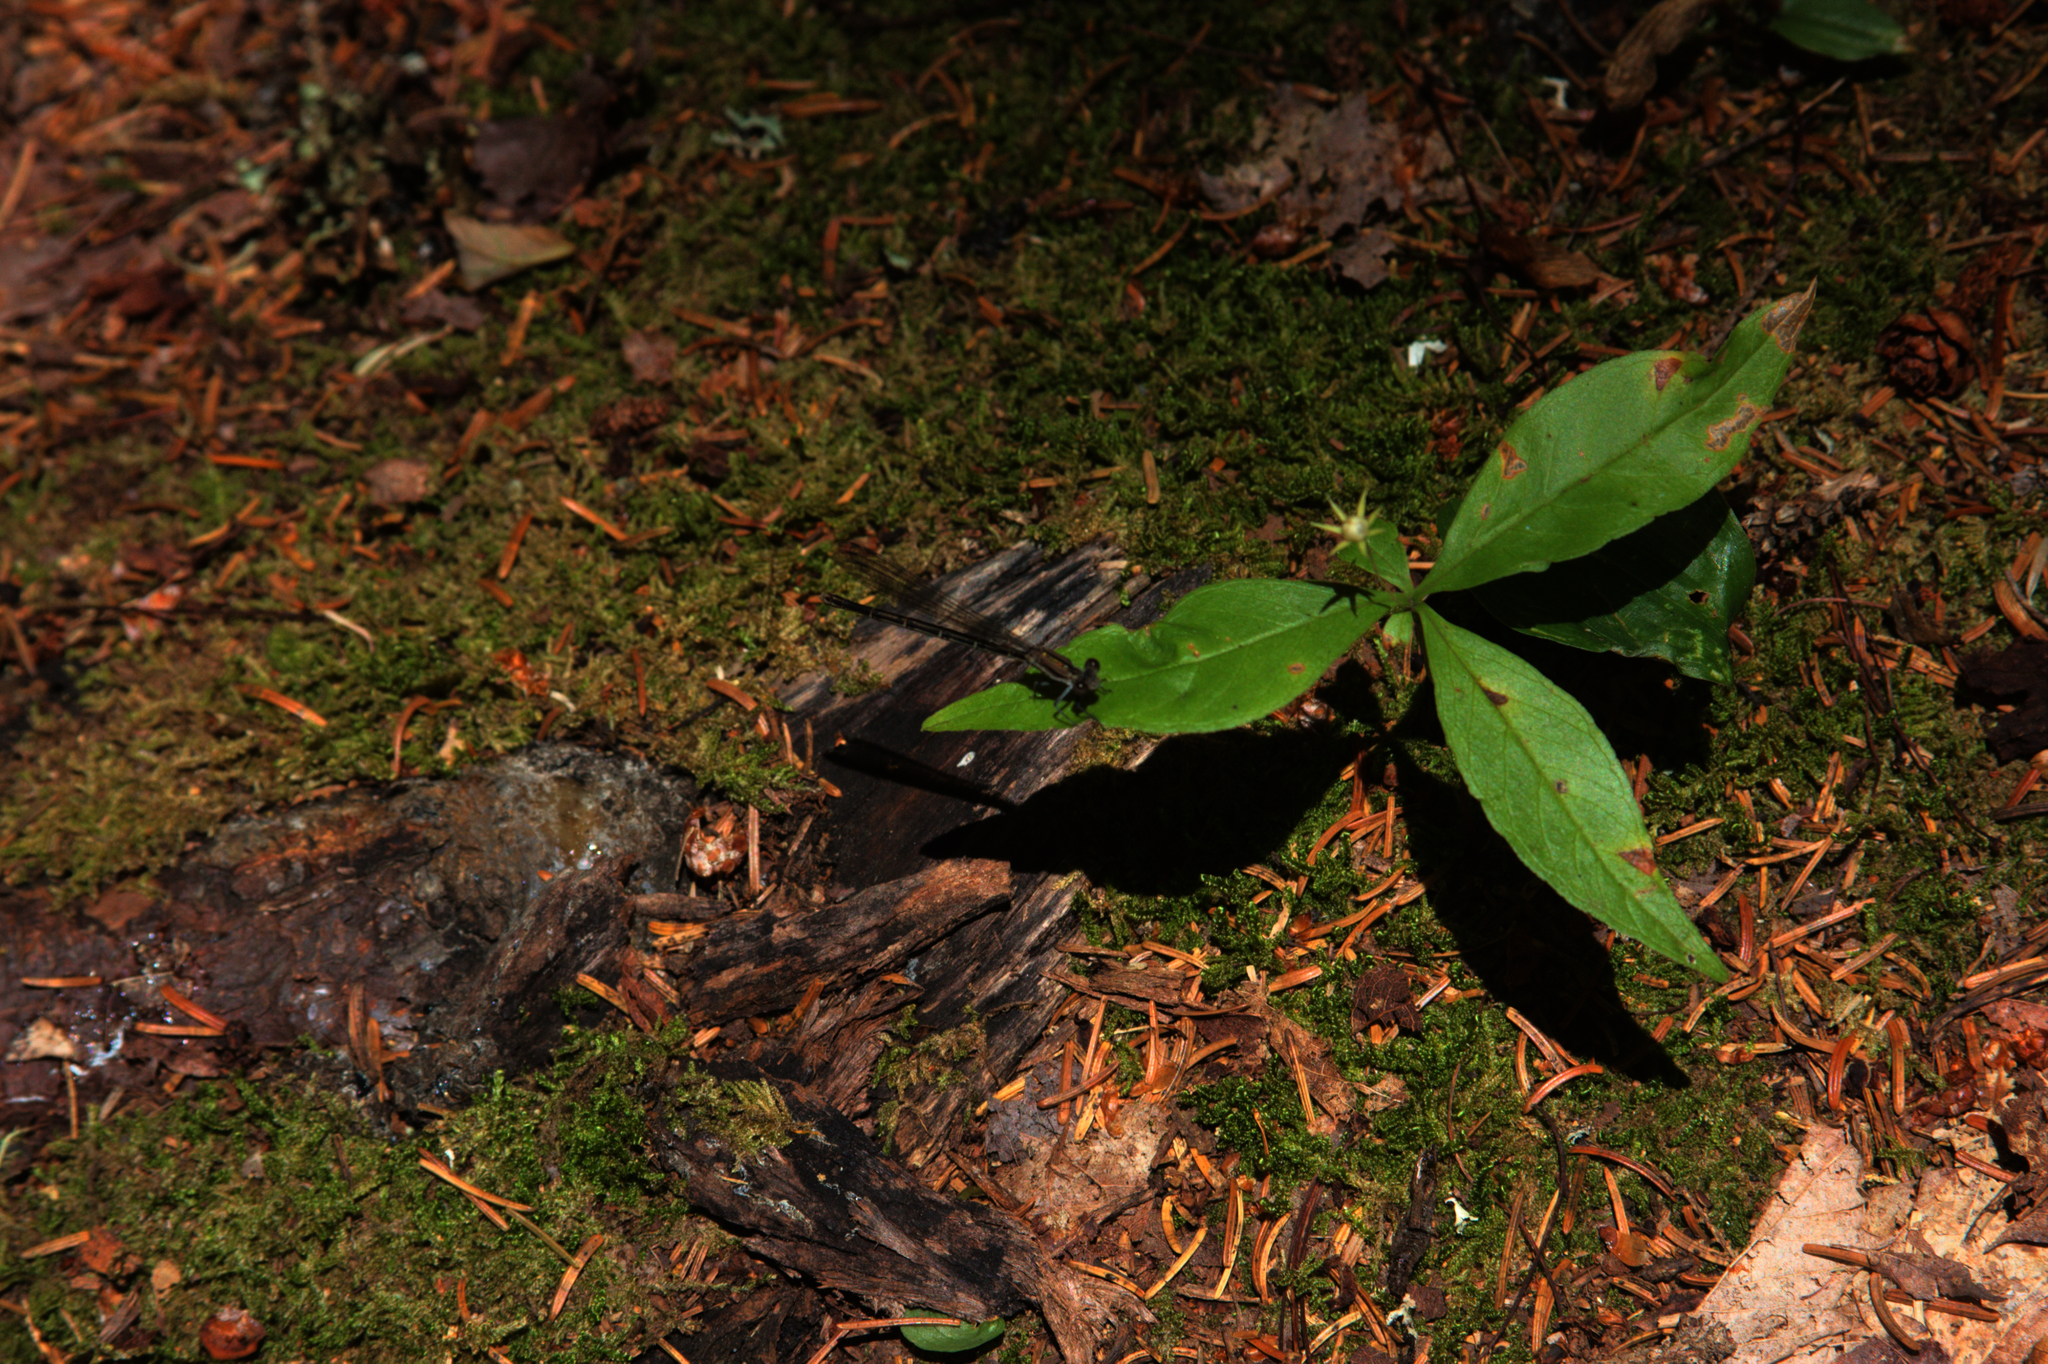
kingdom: Plantae
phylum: Tracheophyta
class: Magnoliopsida
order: Ericales
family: Primulaceae
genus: Lysimachia
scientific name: Lysimachia borealis
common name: American starflower
